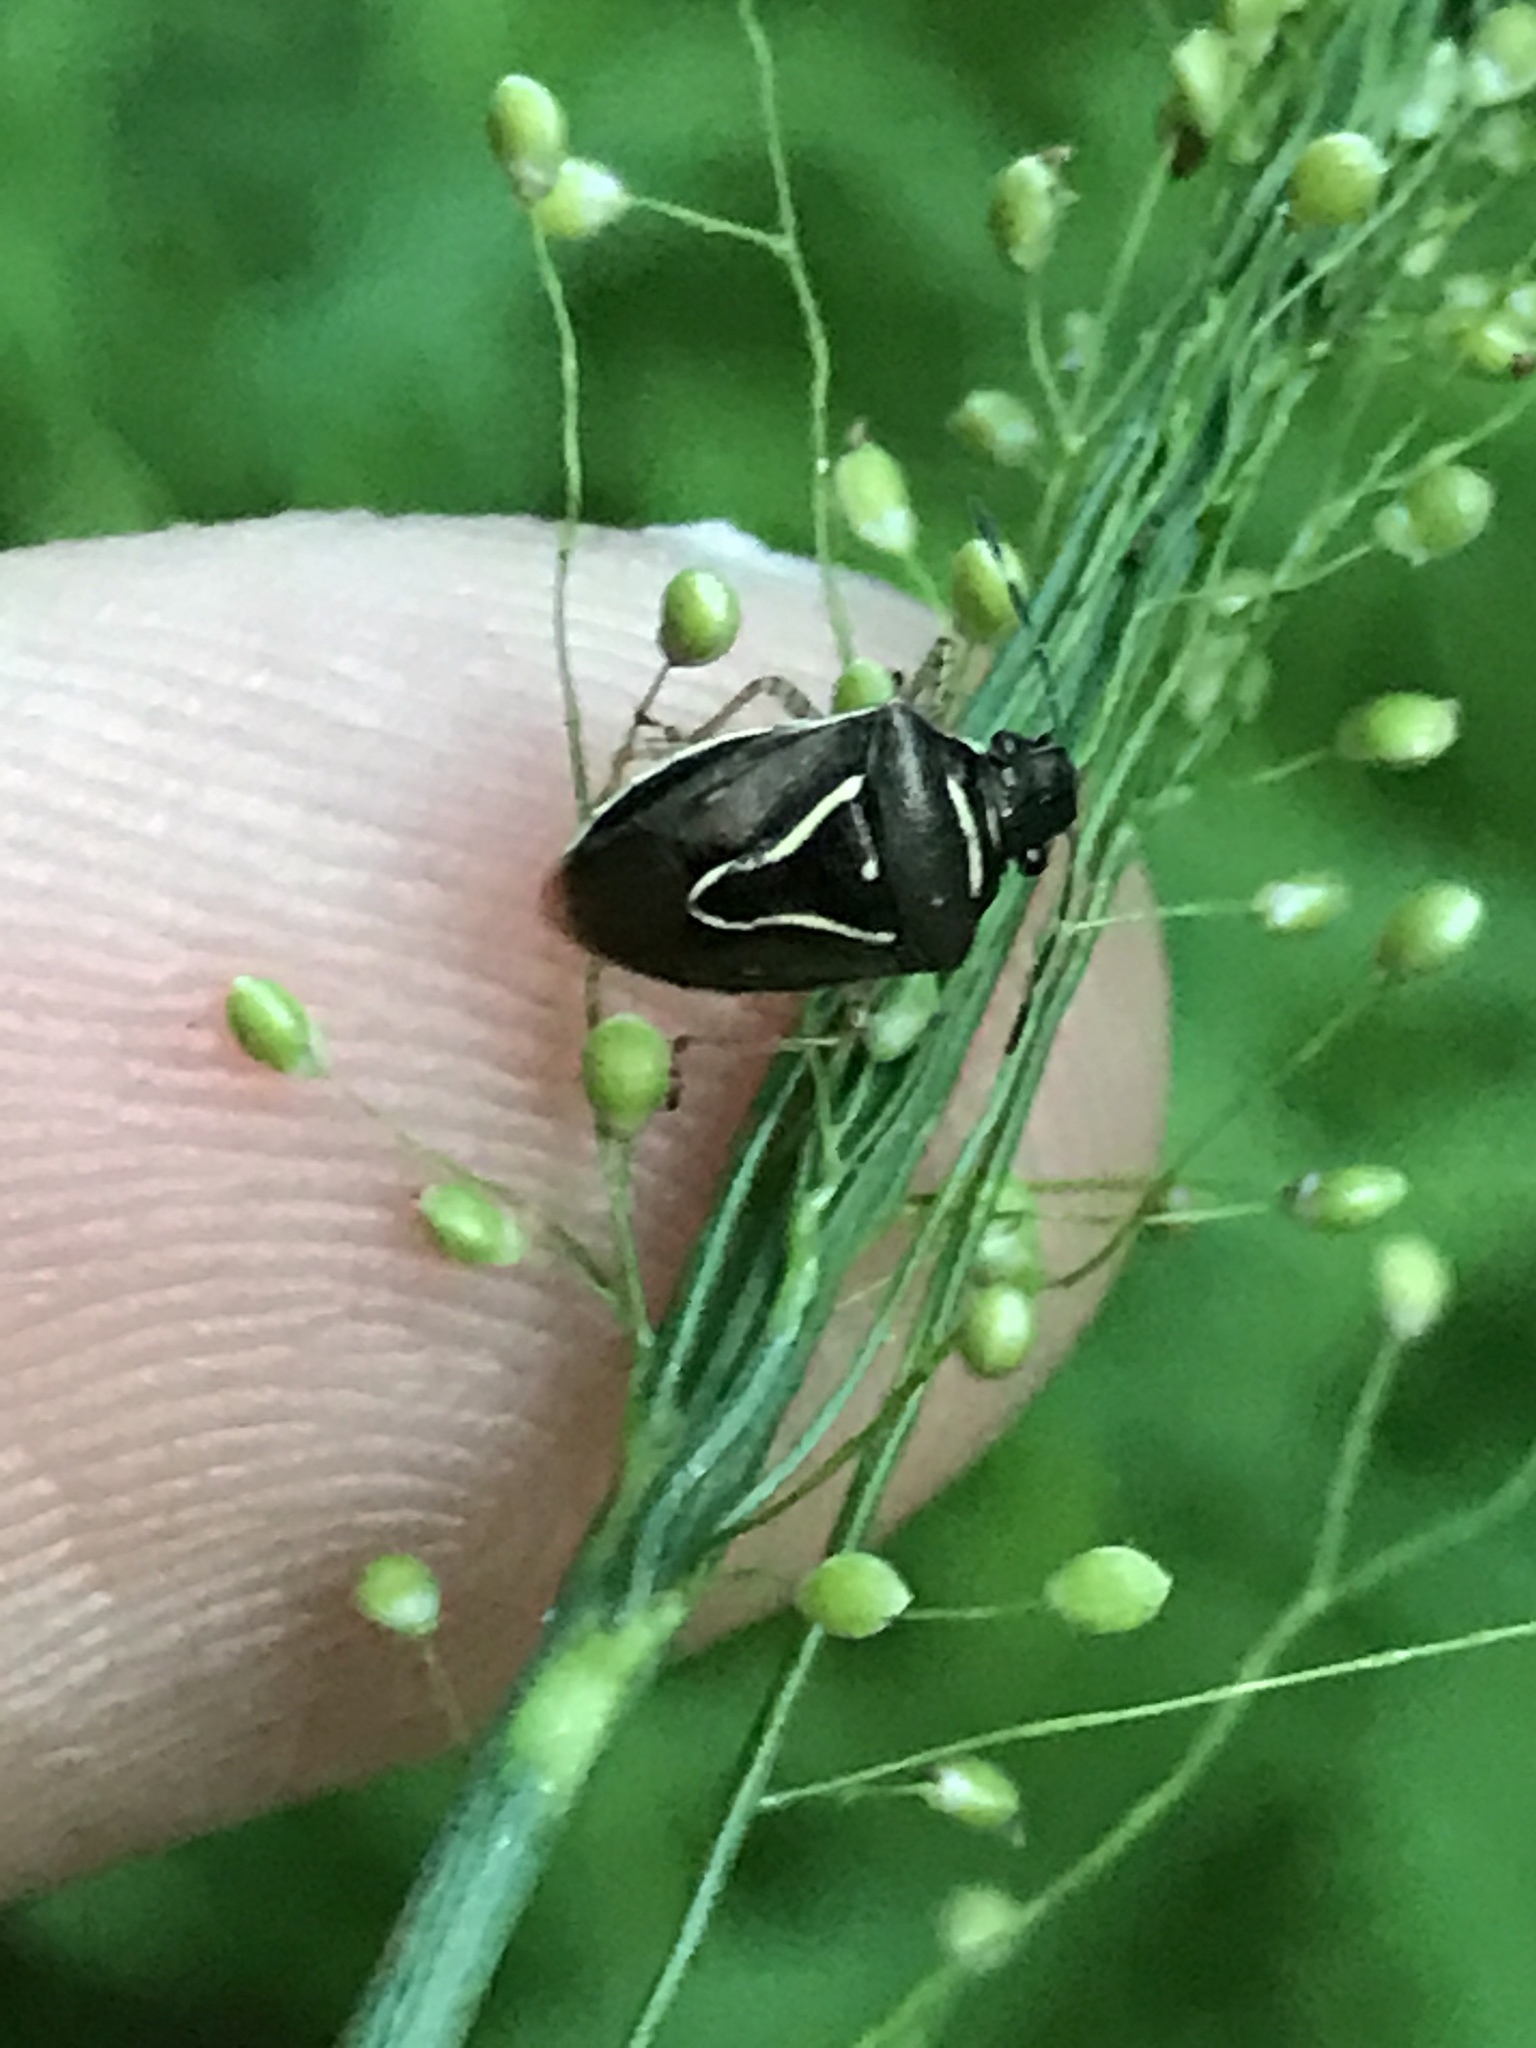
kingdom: Animalia
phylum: Arthropoda
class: Insecta
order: Hemiptera
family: Pentatomidae
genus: Mormidea
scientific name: Mormidea lugens
